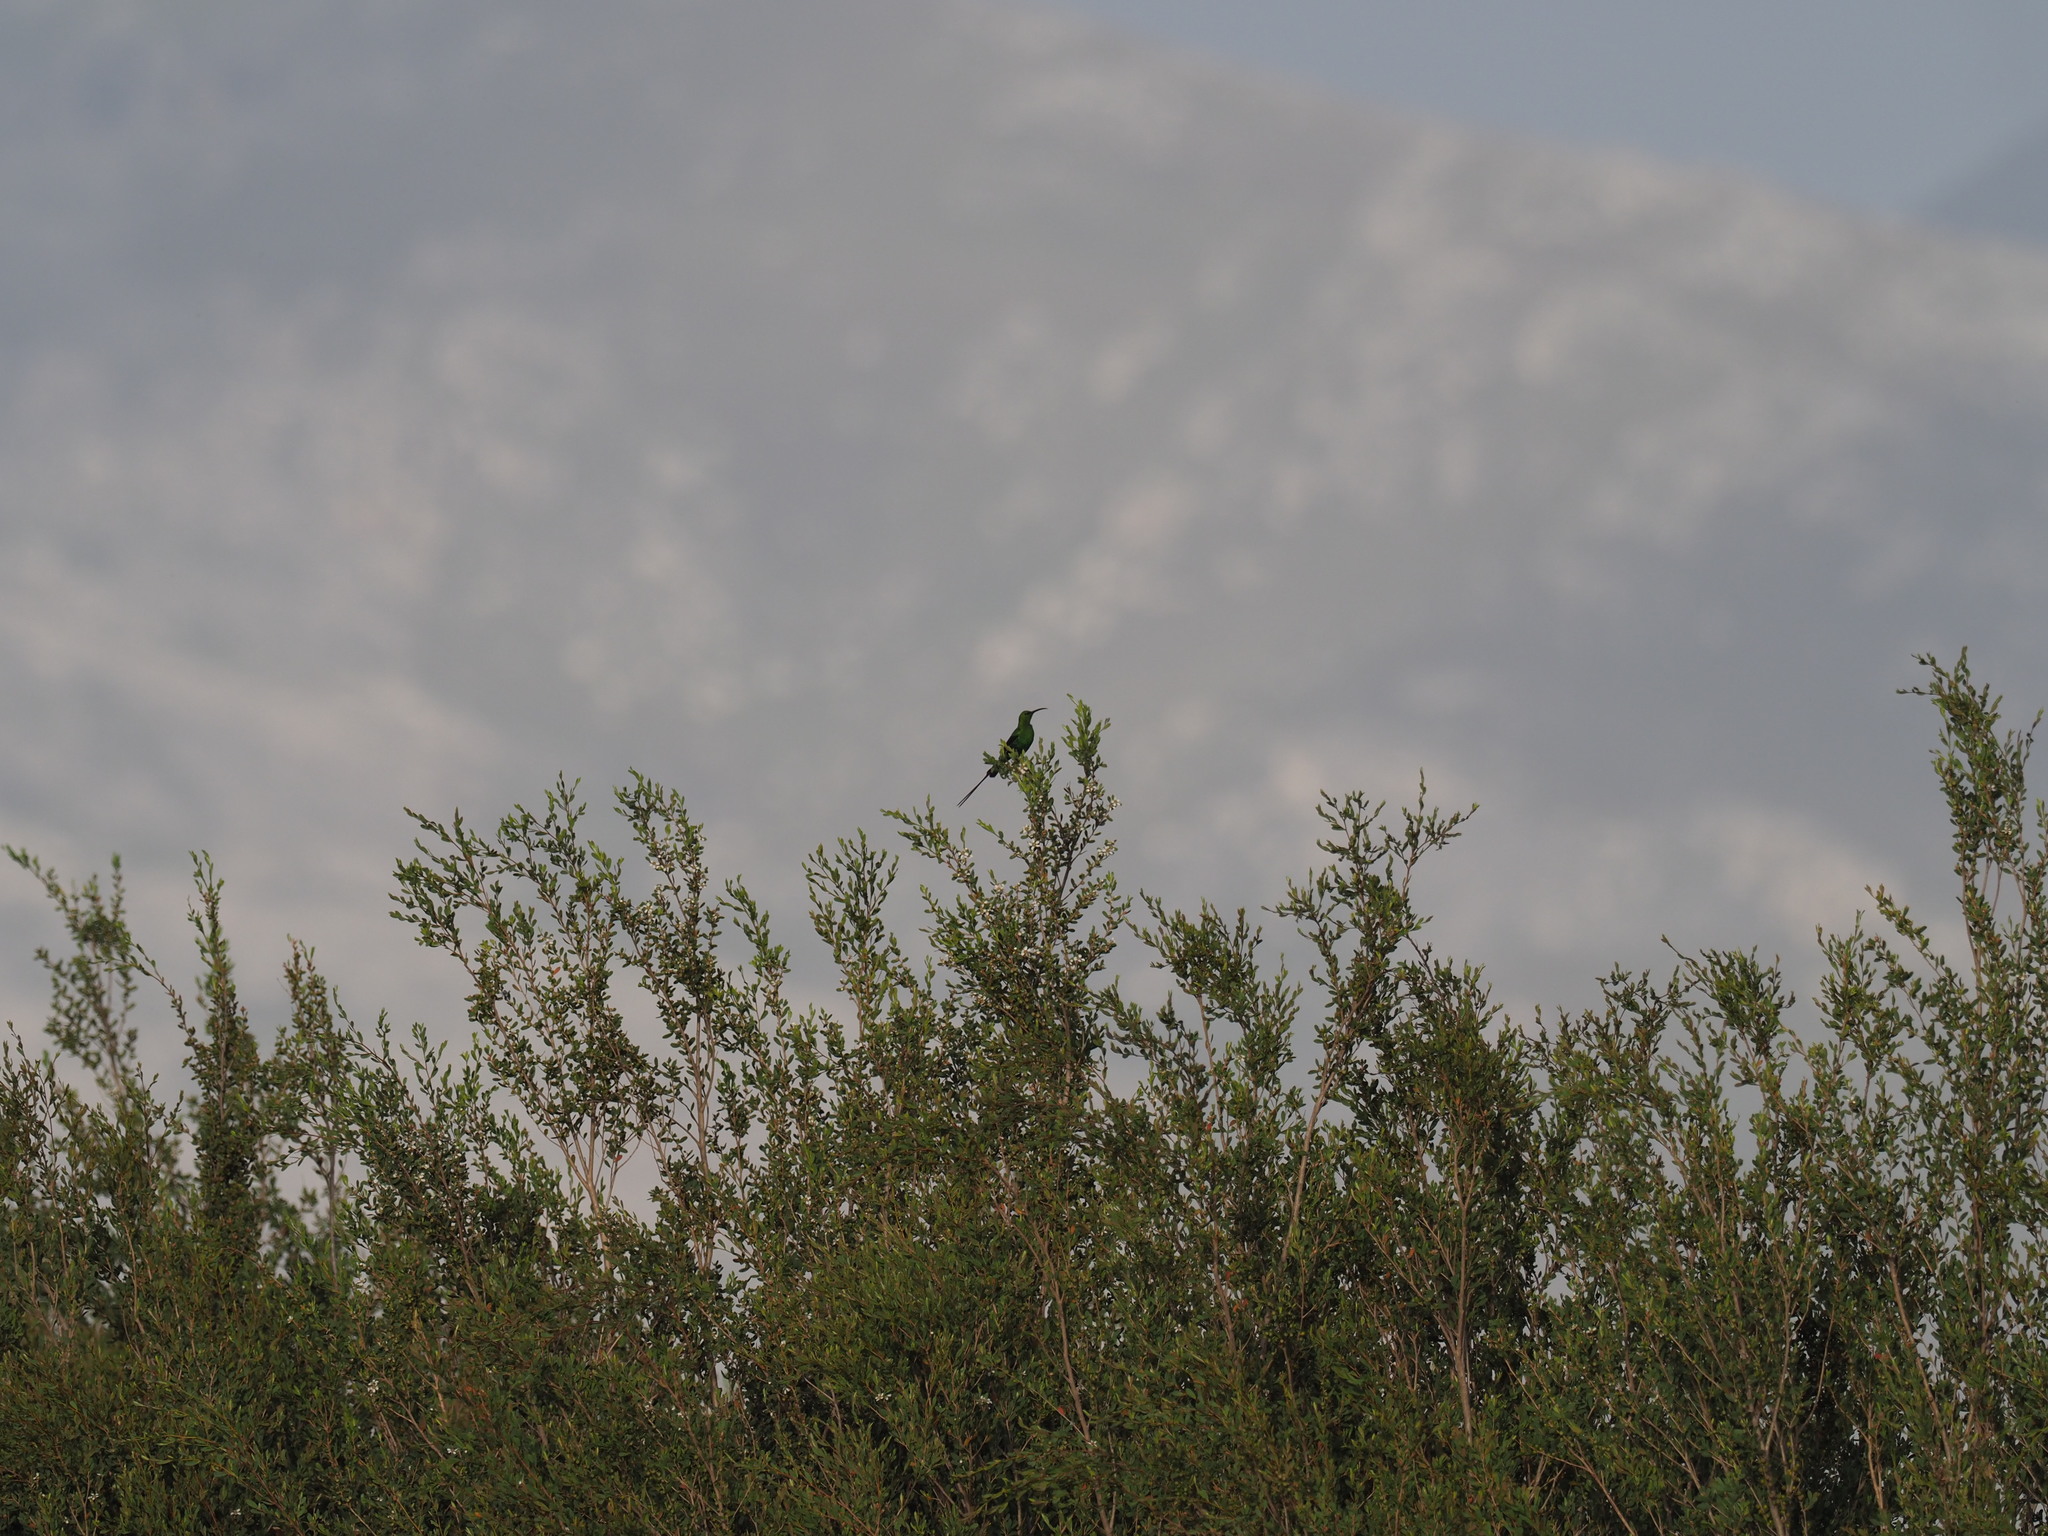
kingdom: Animalia
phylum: Chordata
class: Aves
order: Passeriformes
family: Nectariniidae
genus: Nectarinia
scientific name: Nectarinia famosa
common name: Malachite sunbird
